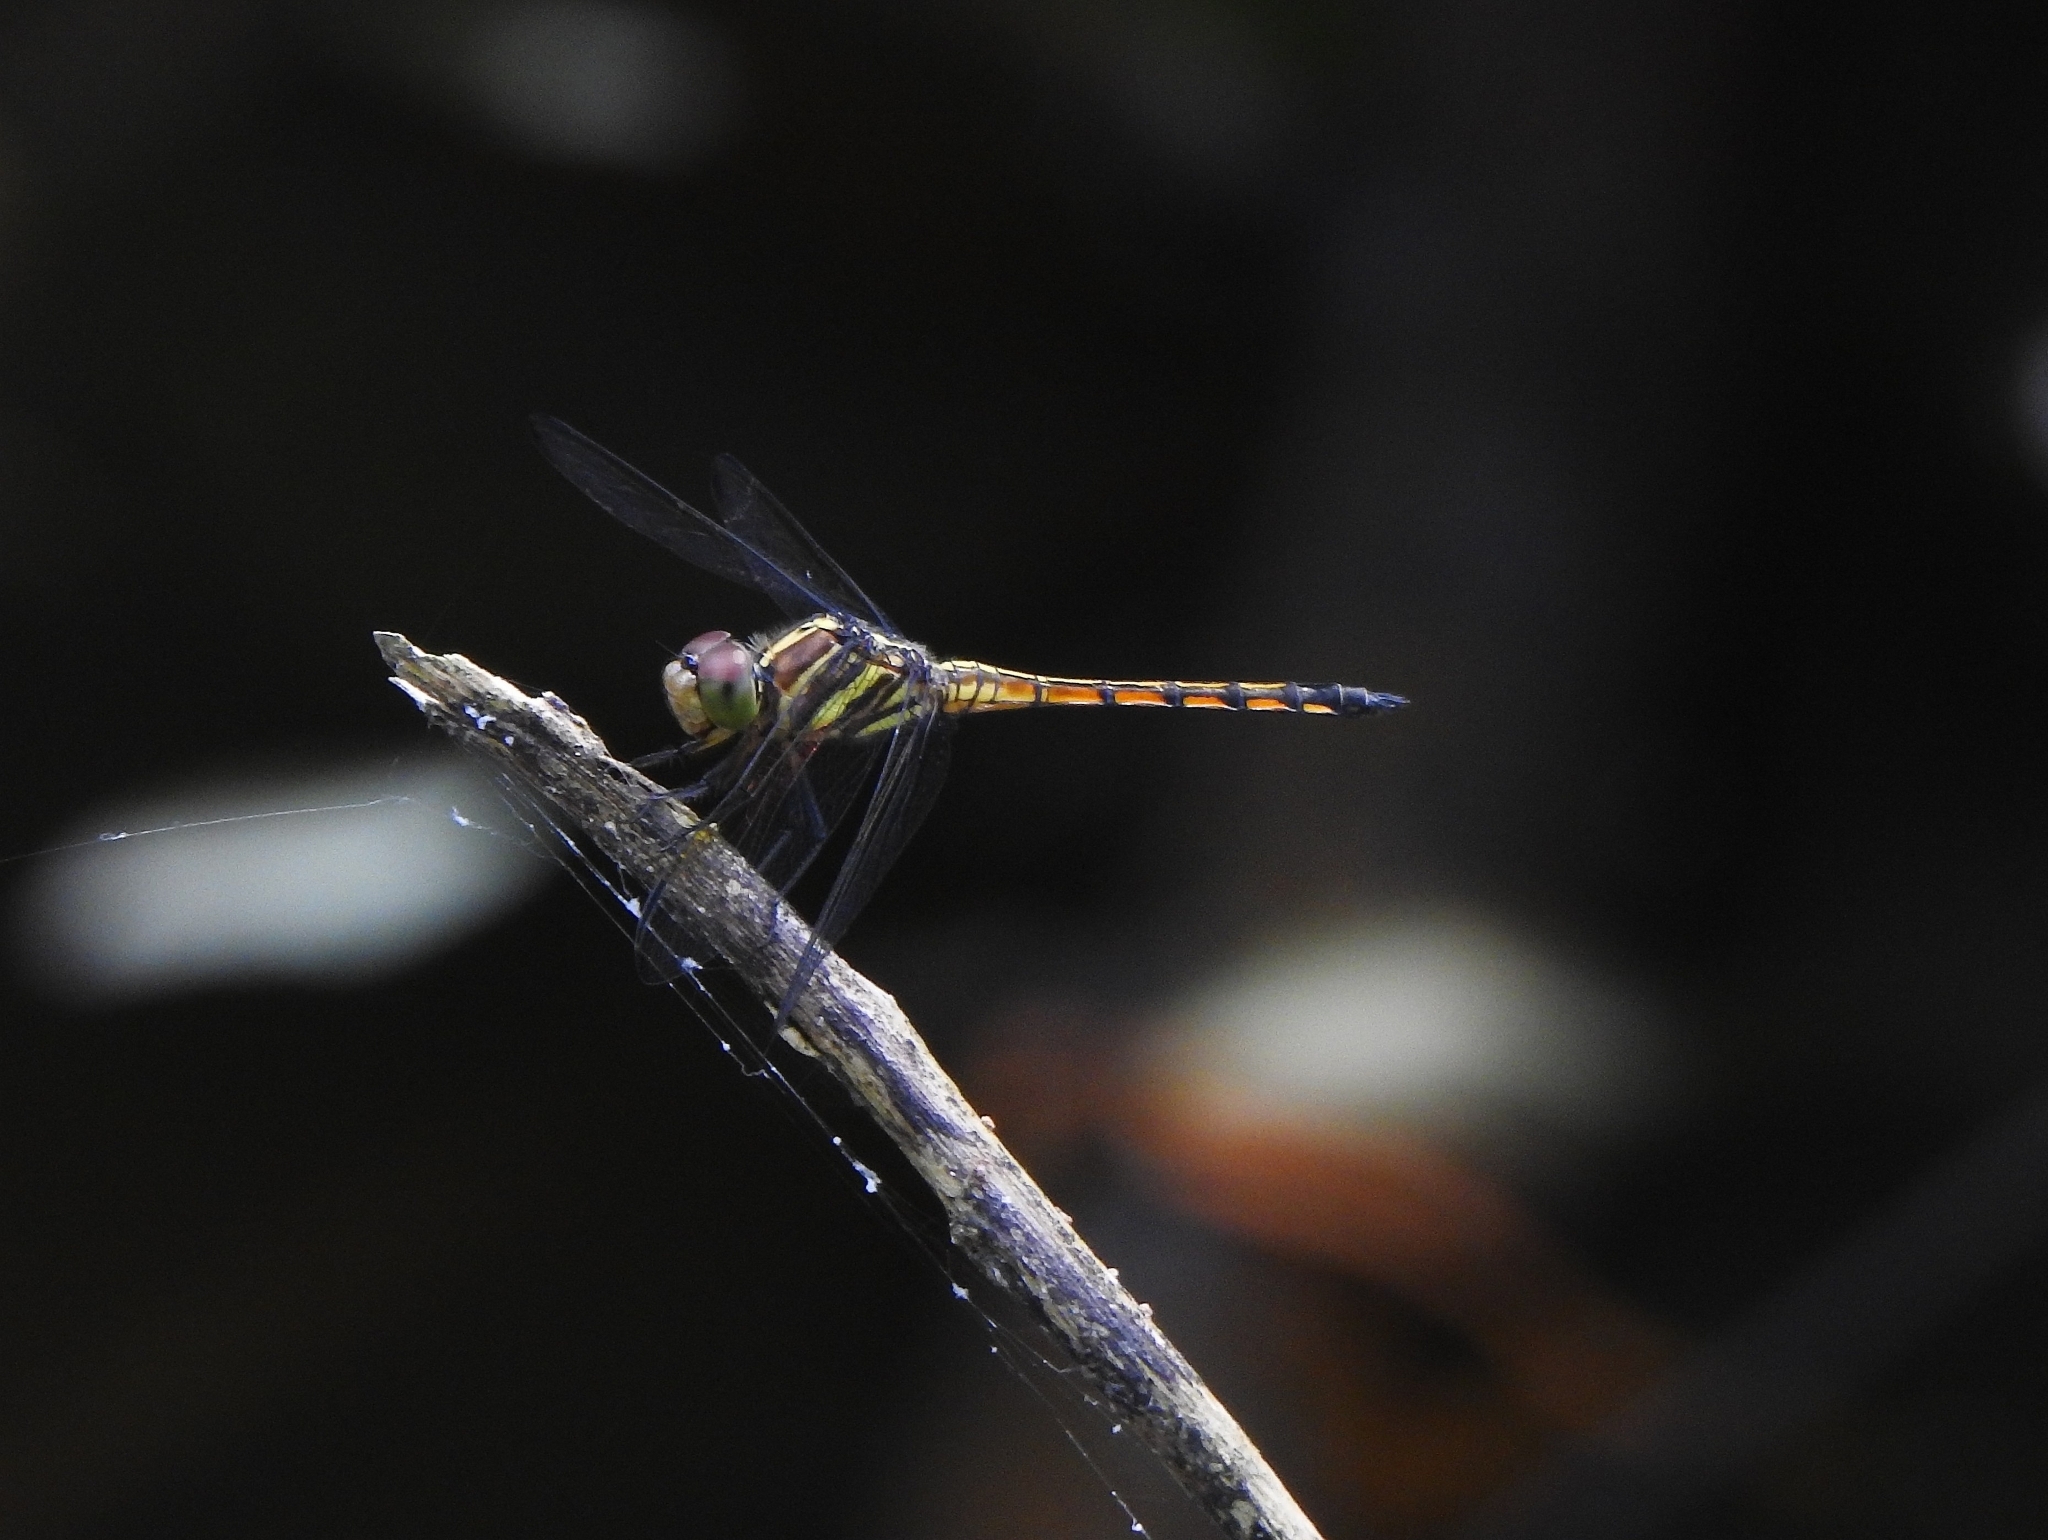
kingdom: Animalia
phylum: Arthropoda
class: Insecta
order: Odonata
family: Libellulidae
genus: Potamarcha
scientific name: Potamarcha congener
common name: Blue chaser
